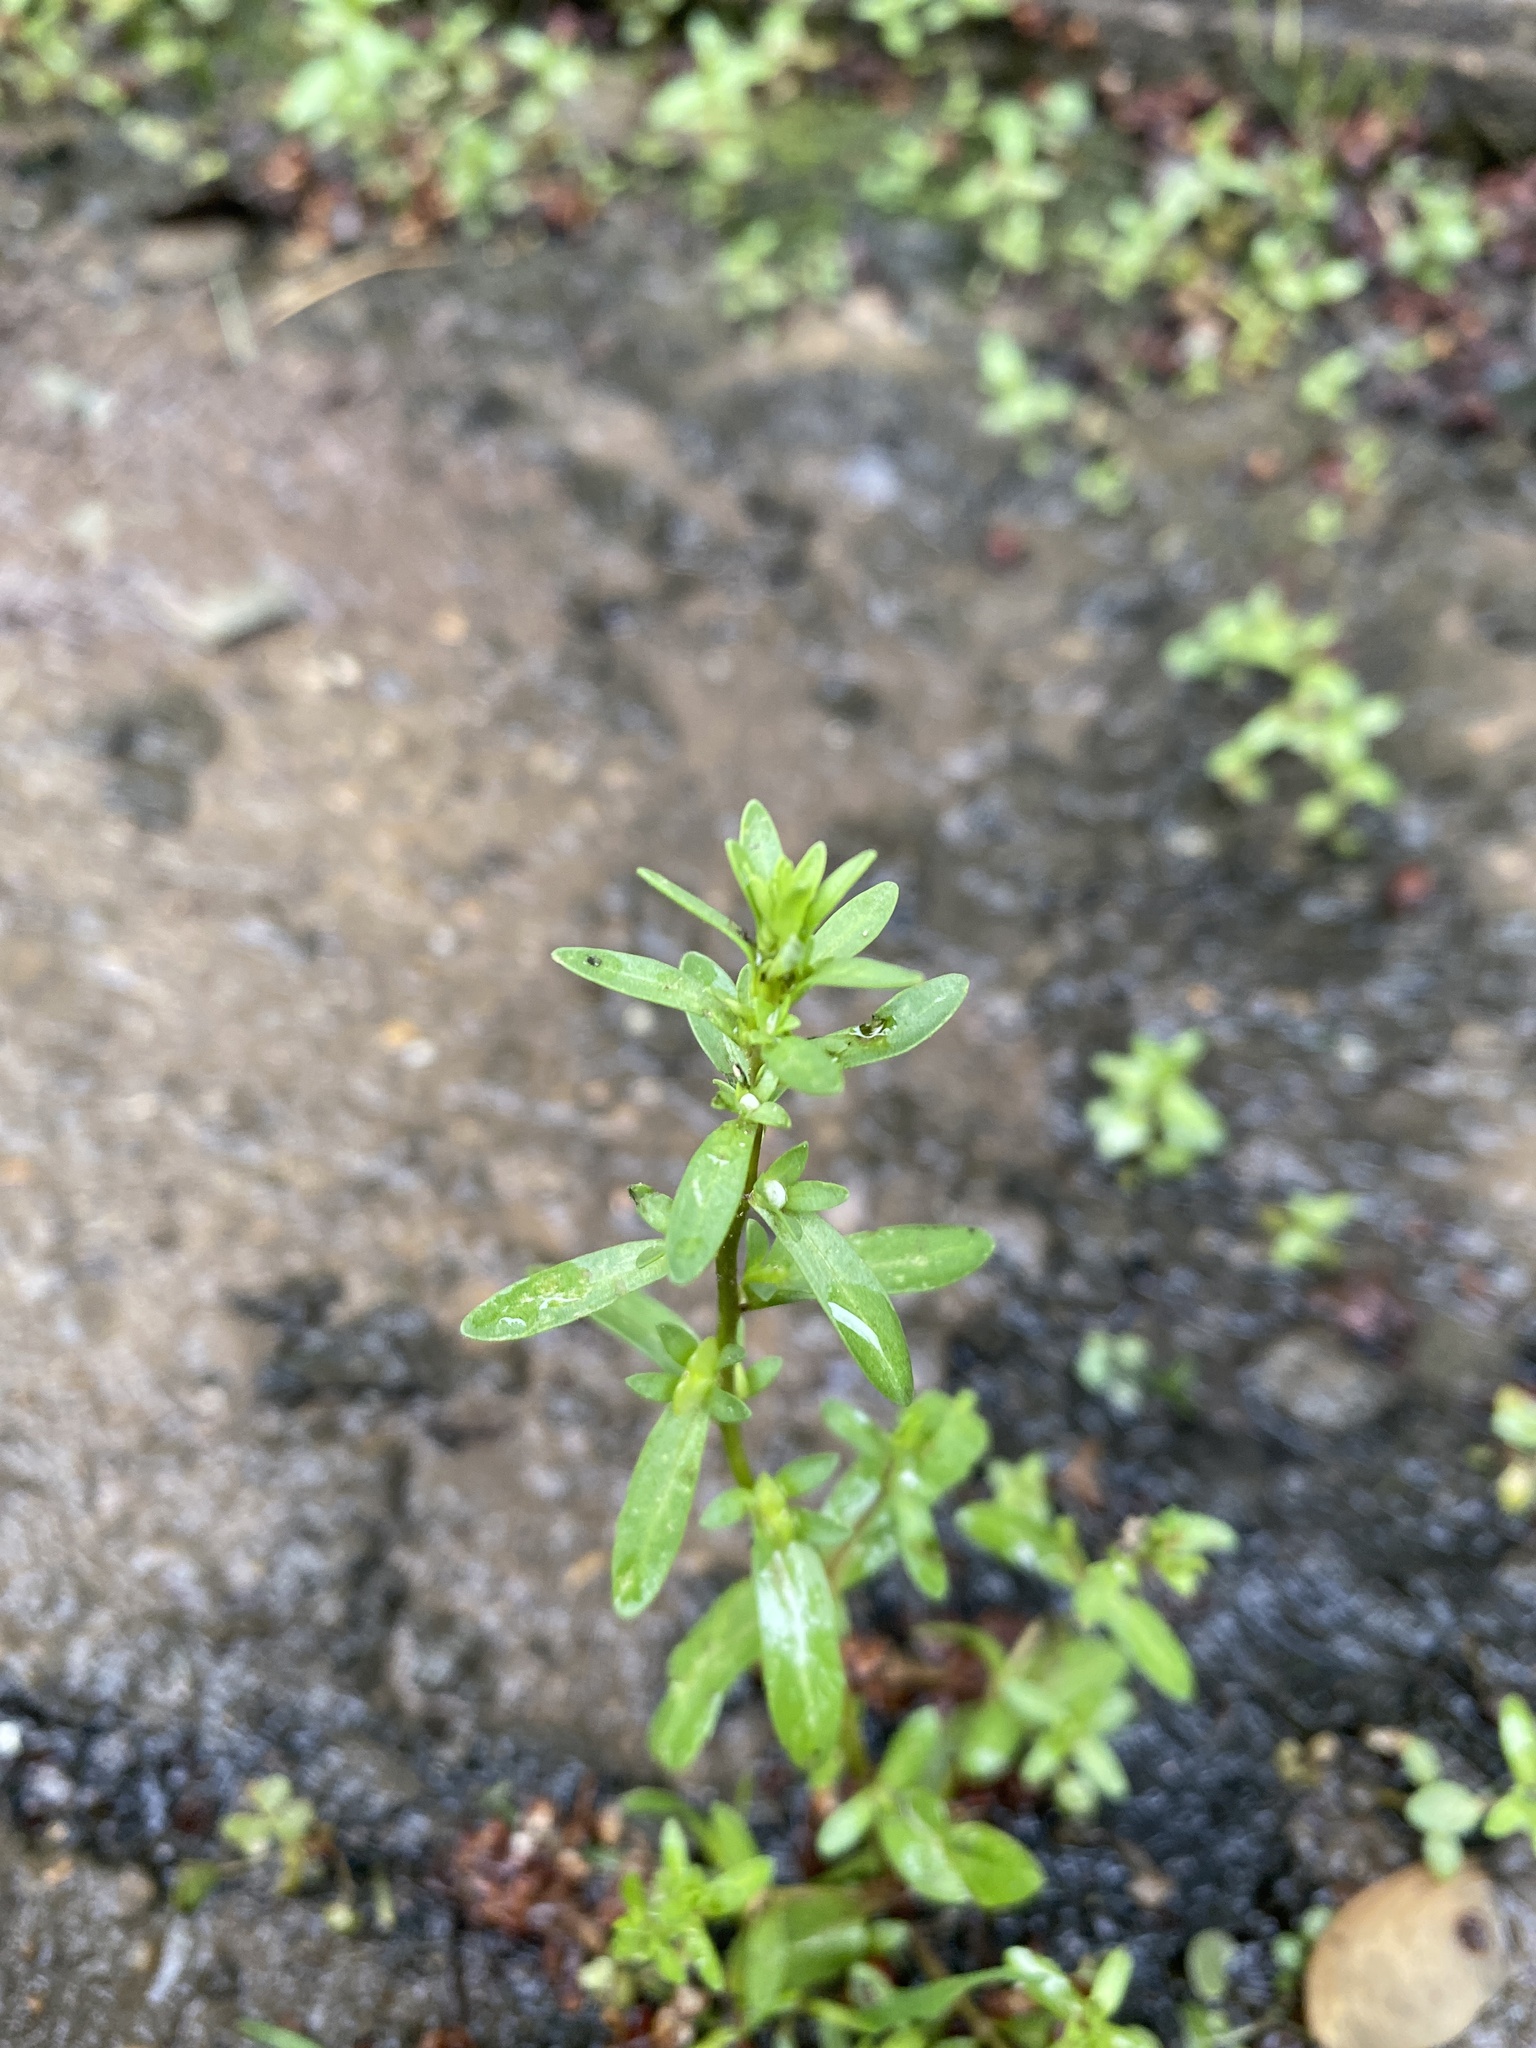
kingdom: Plantae
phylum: Tracheophyta
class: Magnoliopsida
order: Lamiales
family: Plantaginaceae
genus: Veronica
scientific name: Veronica peregrina
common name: Neckweed
